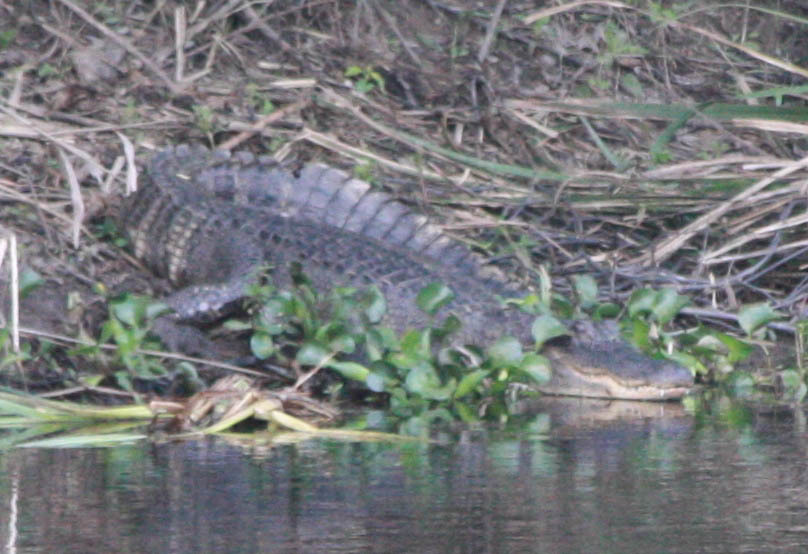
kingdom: Animalia
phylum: Chordata
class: Crocodylia
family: Alligatoridae
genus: Alligator
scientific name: Alligator mississippiensis
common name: American alligator
